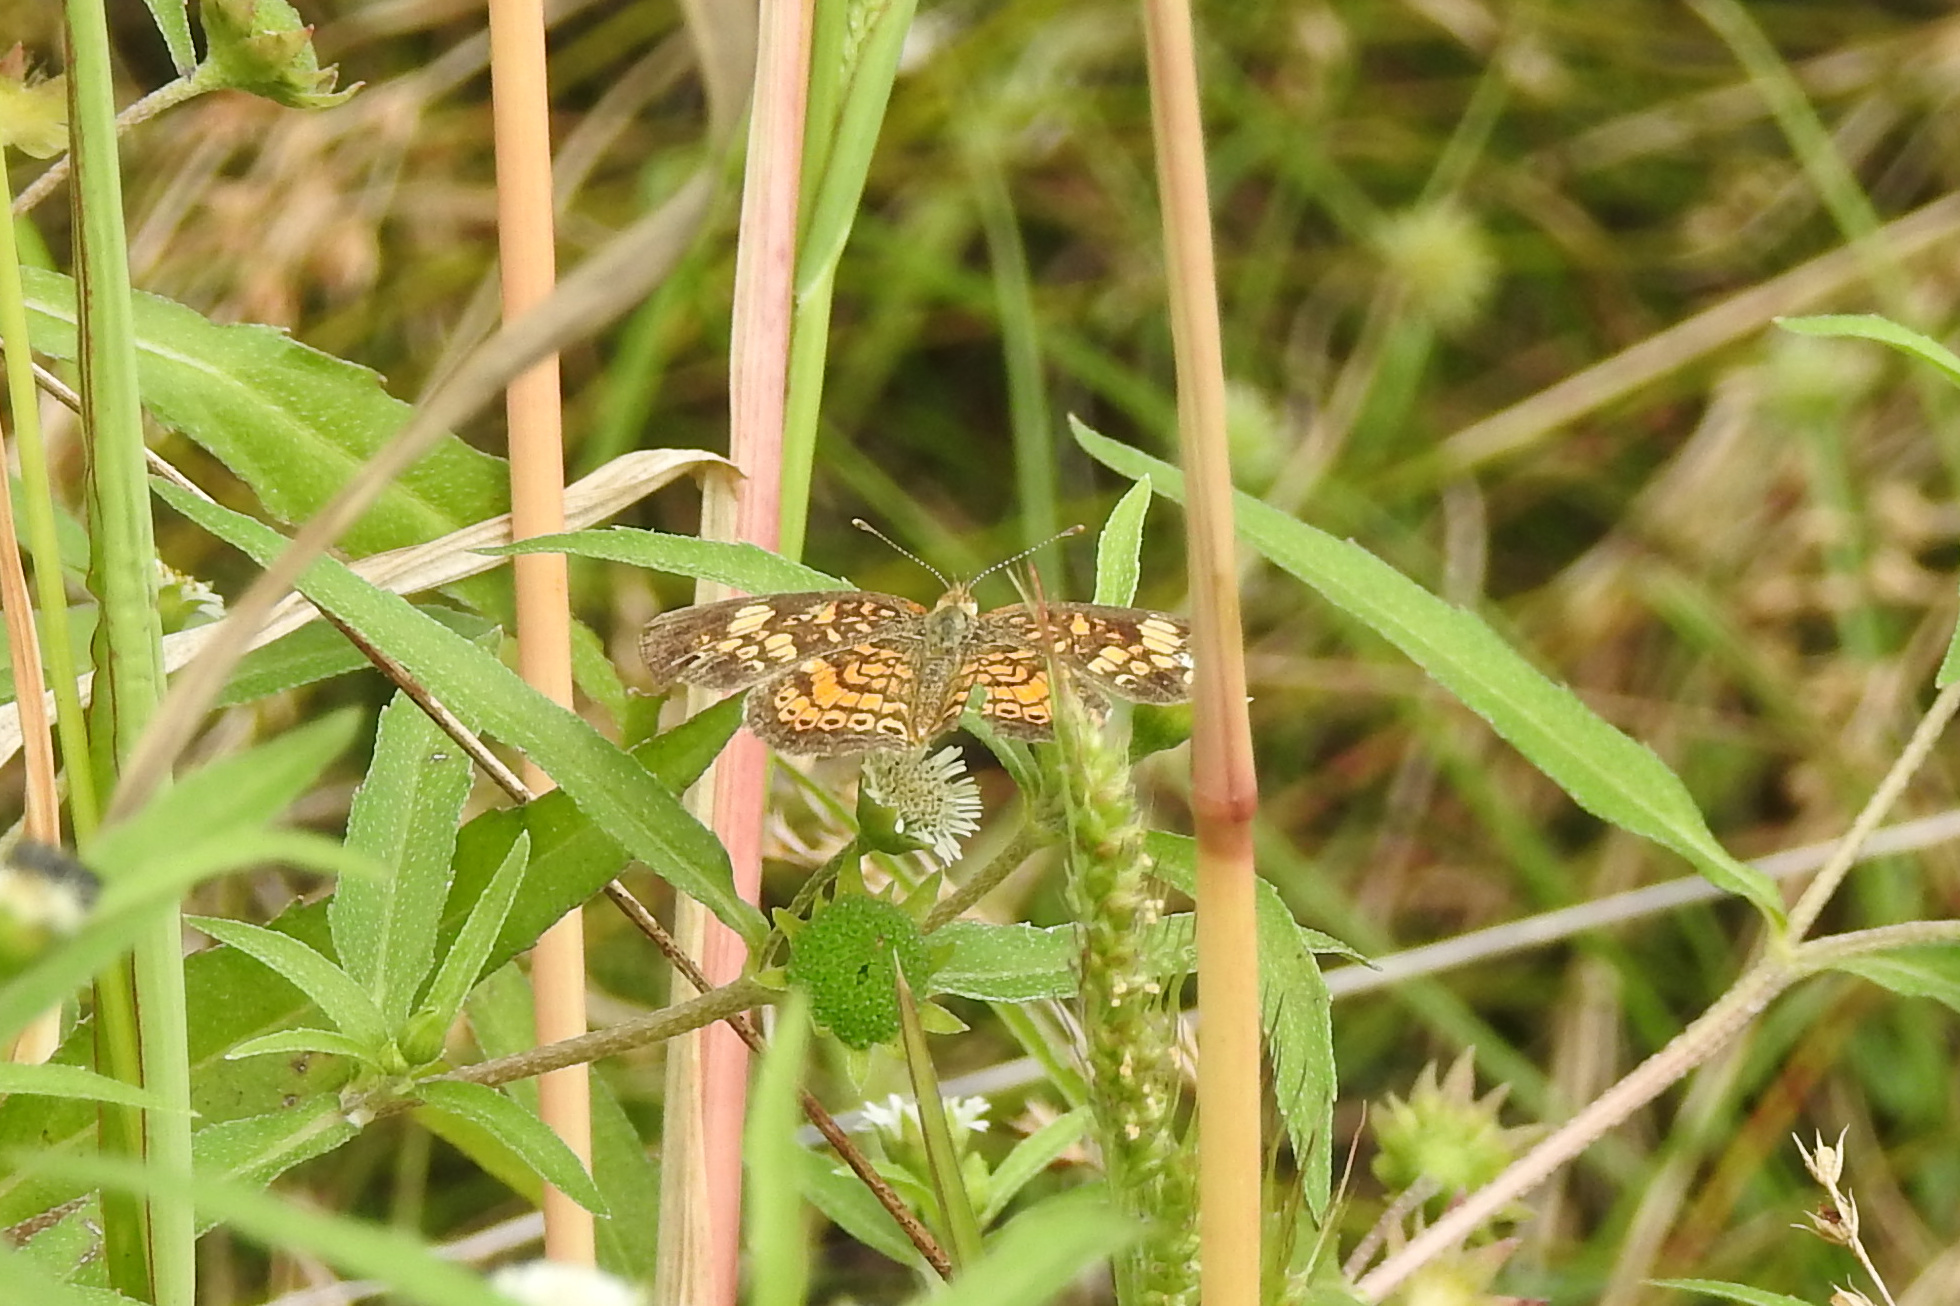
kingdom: Animalia
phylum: Arthropoda
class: Insecta
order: Lepidoptera
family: Nymphalidae
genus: Phyciodes
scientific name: Phyciodes tharos
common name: Pearl crescent
